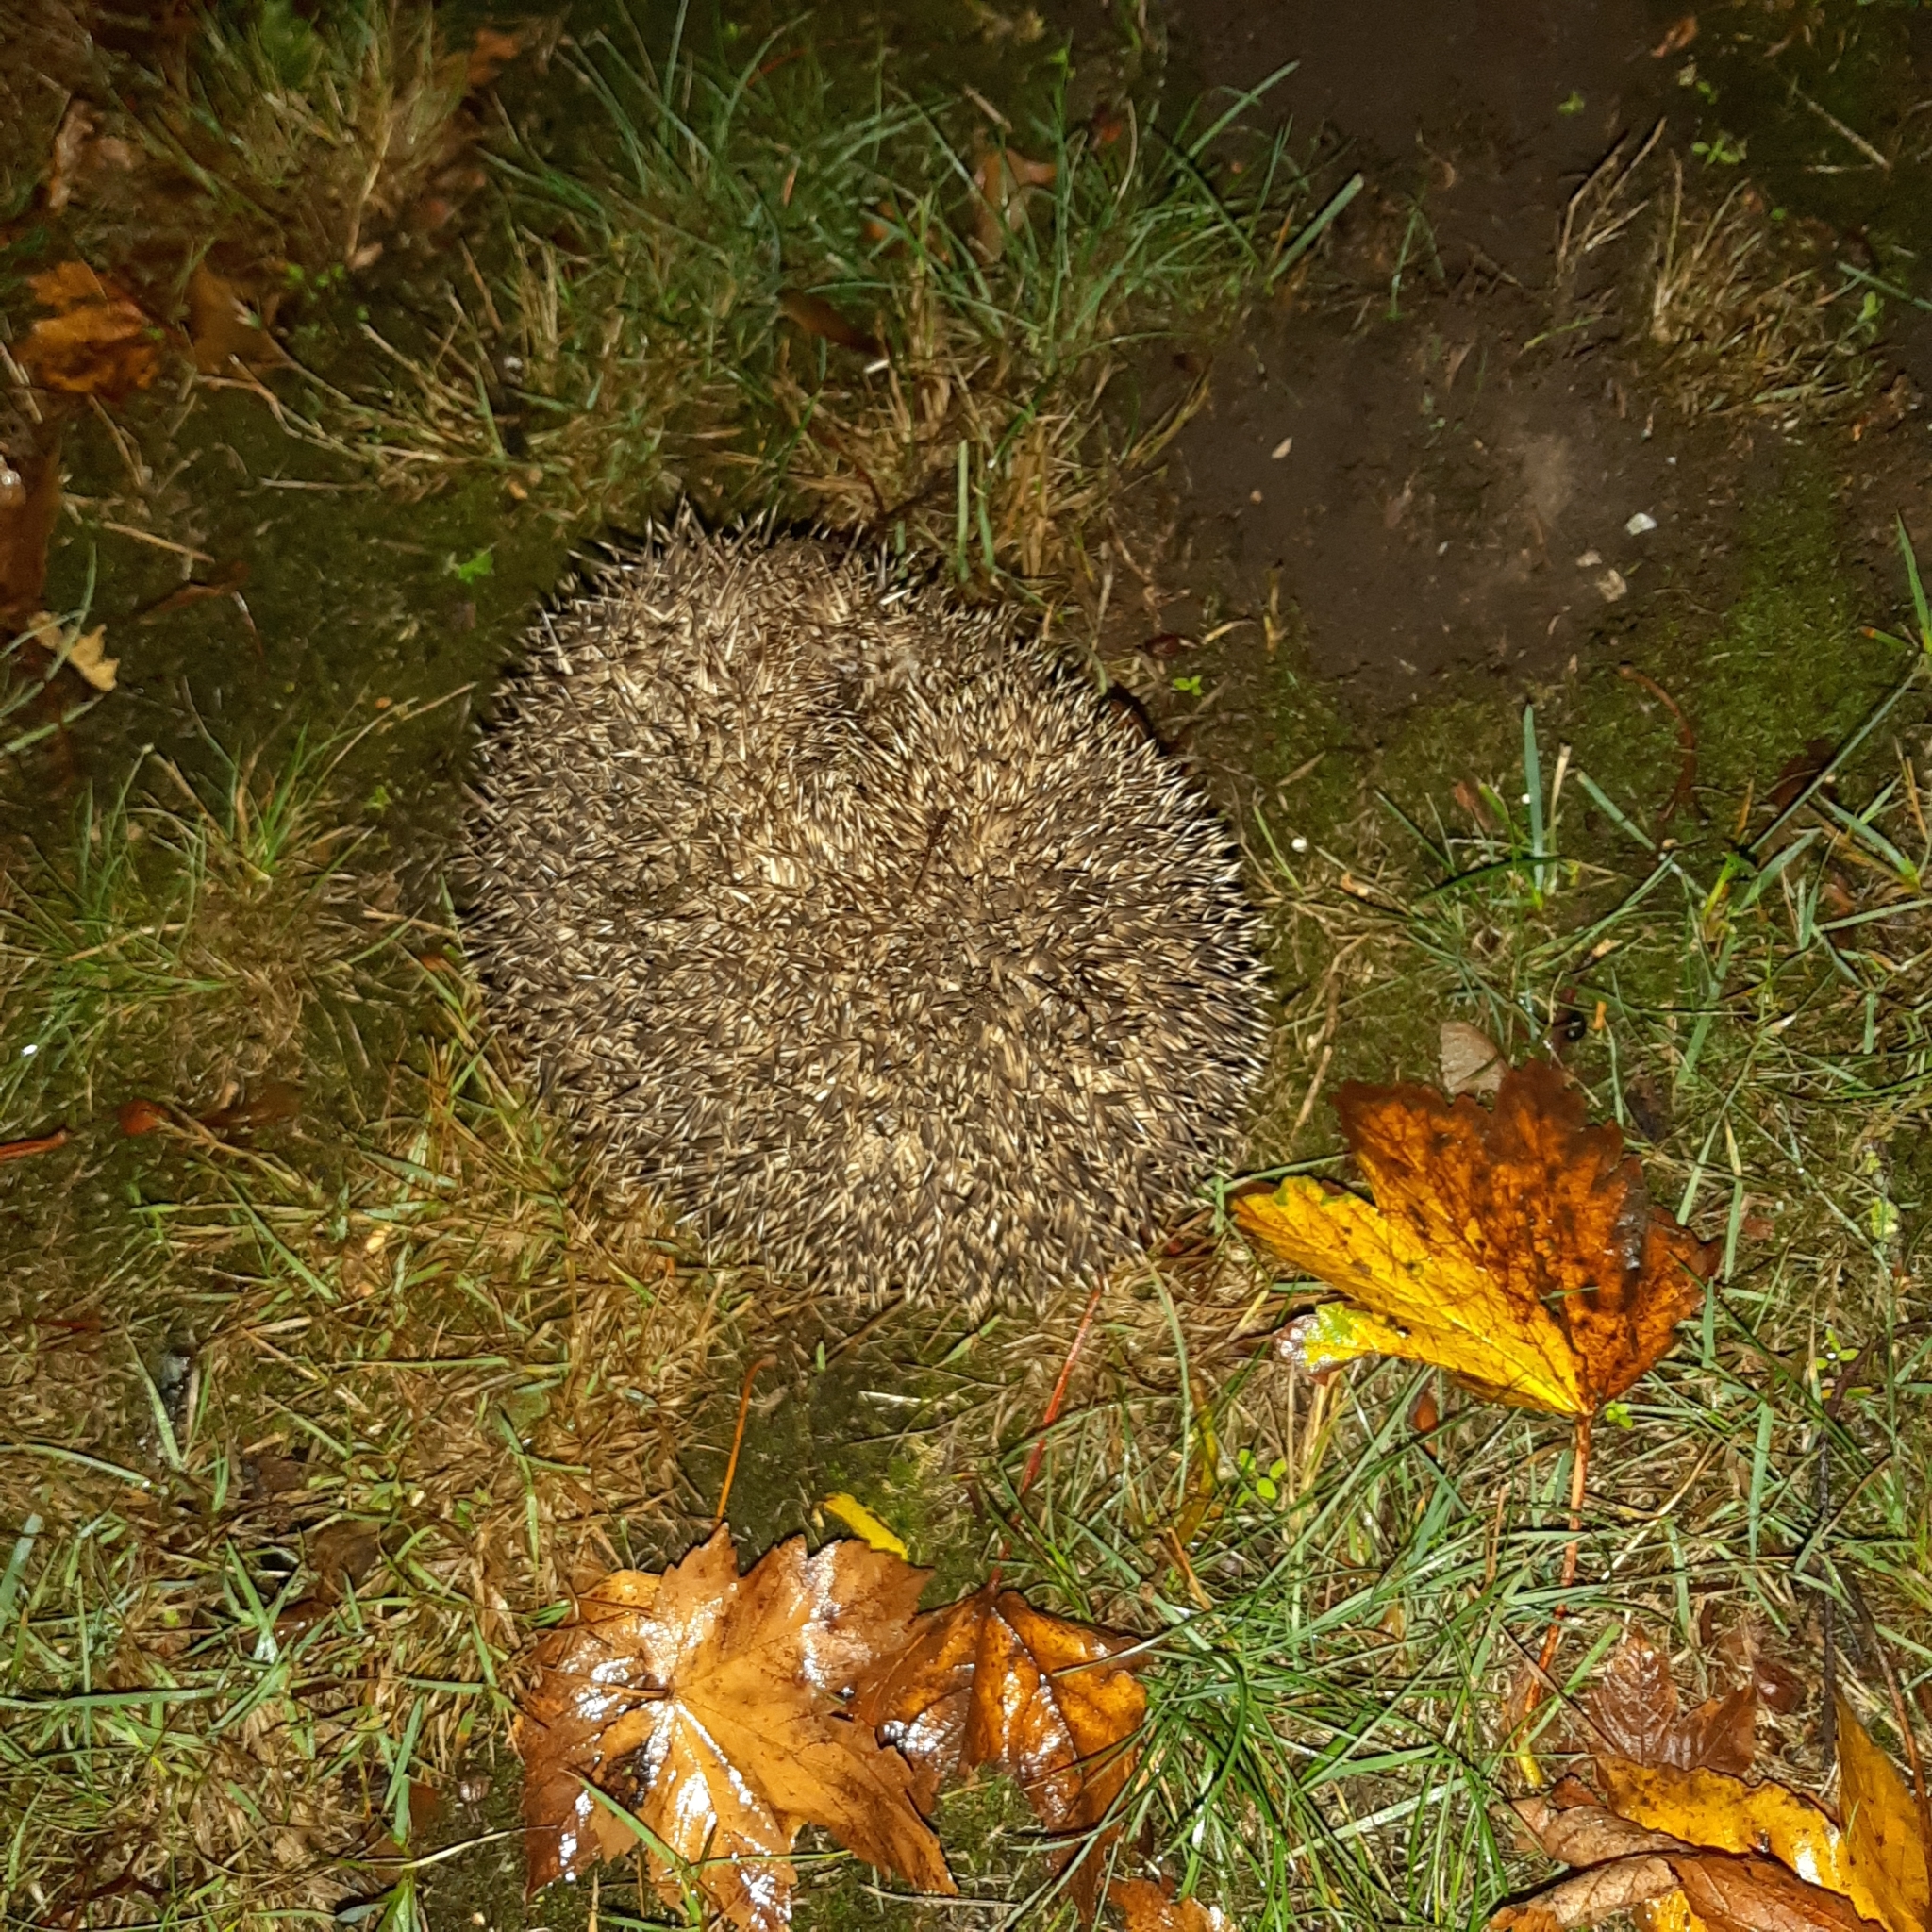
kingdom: Animalia
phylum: Chordata
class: Mammalia
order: Erinaceomorpha
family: Erinaceidae
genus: Erinaceus
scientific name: Erinaceus europaeus
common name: West european hedgehog
